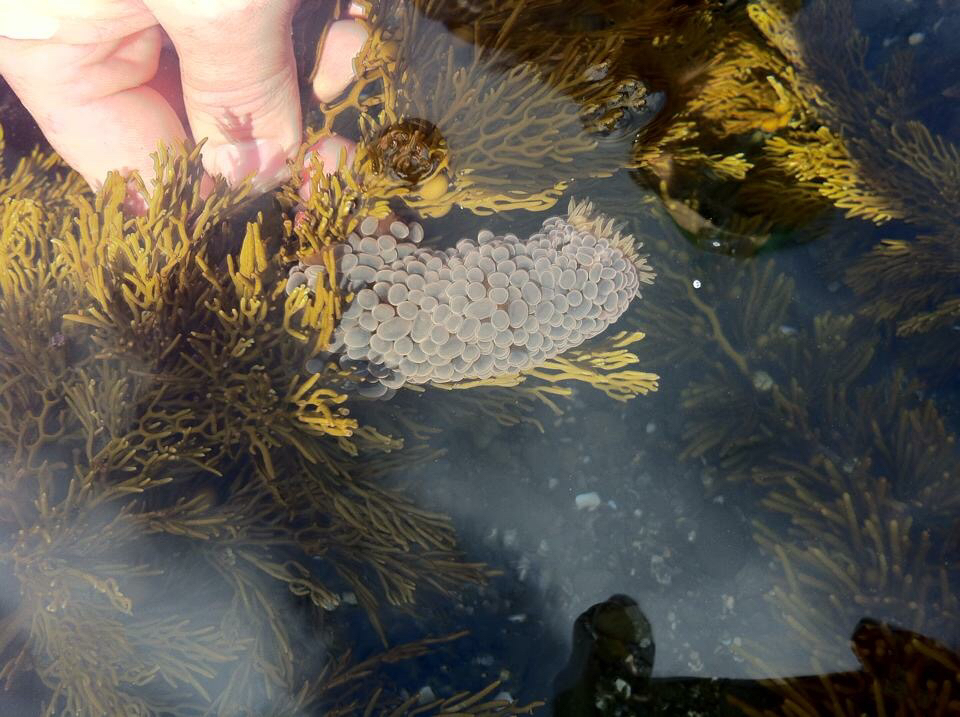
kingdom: Animalia
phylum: Cnidaria
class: Anthozoa
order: Actiniaria
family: Actiniidae
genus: Phlyctenactis
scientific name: Phlyctenactis tuberculosa
